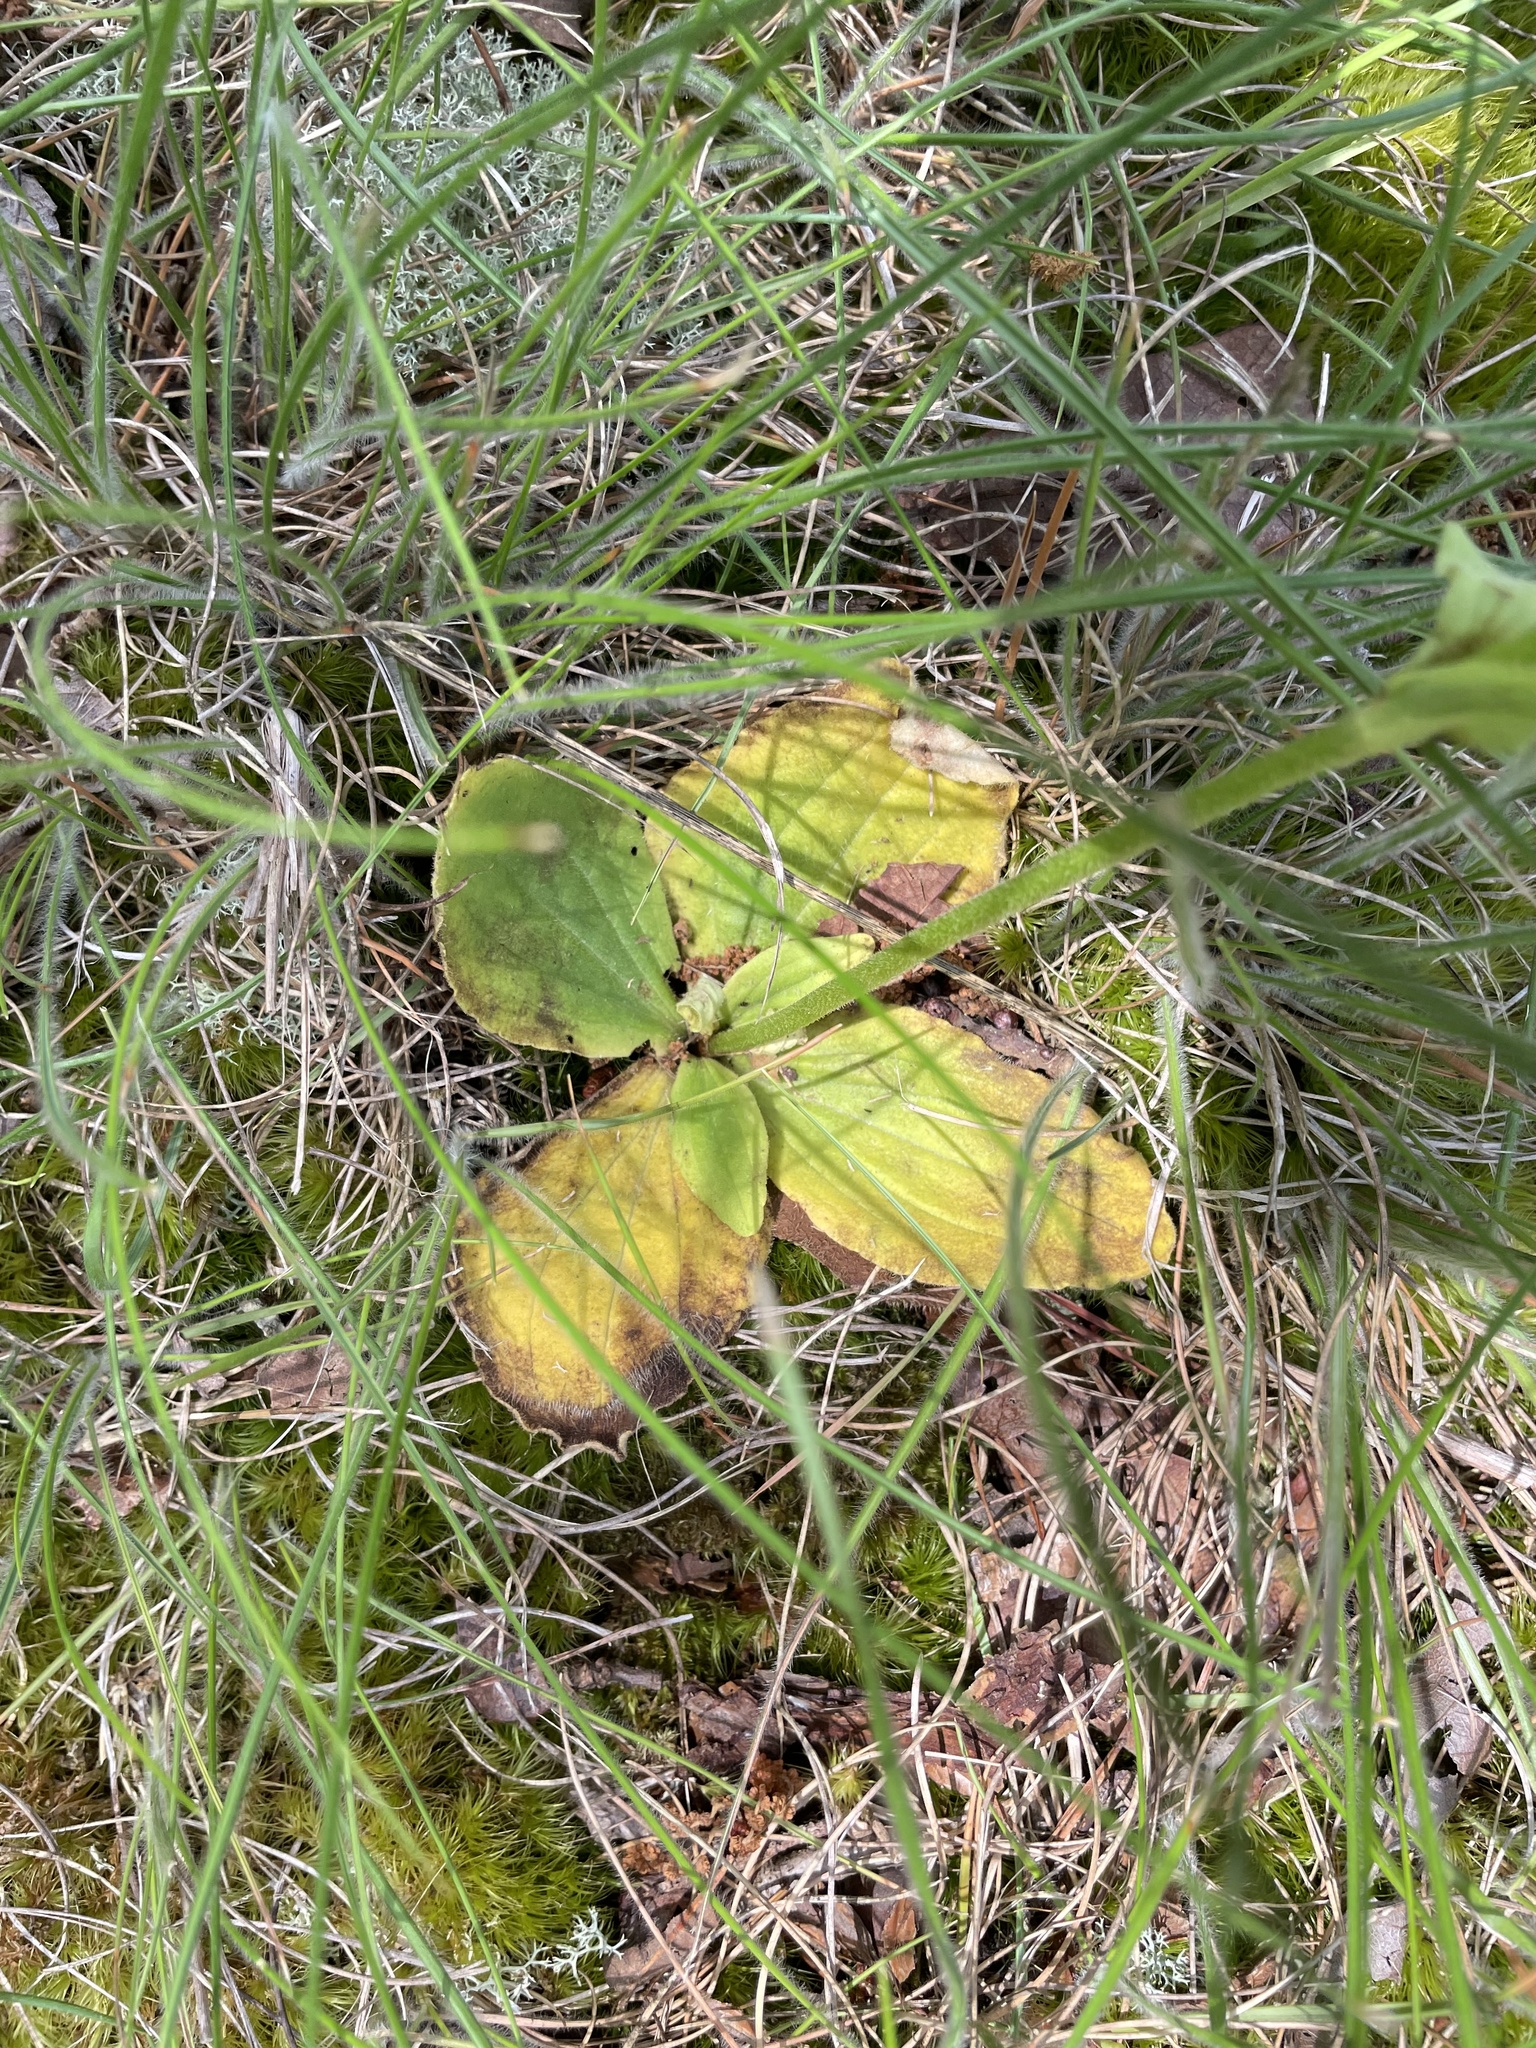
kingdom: Plantae
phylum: Tracheophyta
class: Magnoliopsida
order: Asterales
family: Asteraceae
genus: Arnica
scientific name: Arnica acaulis
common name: Common leopardbane
